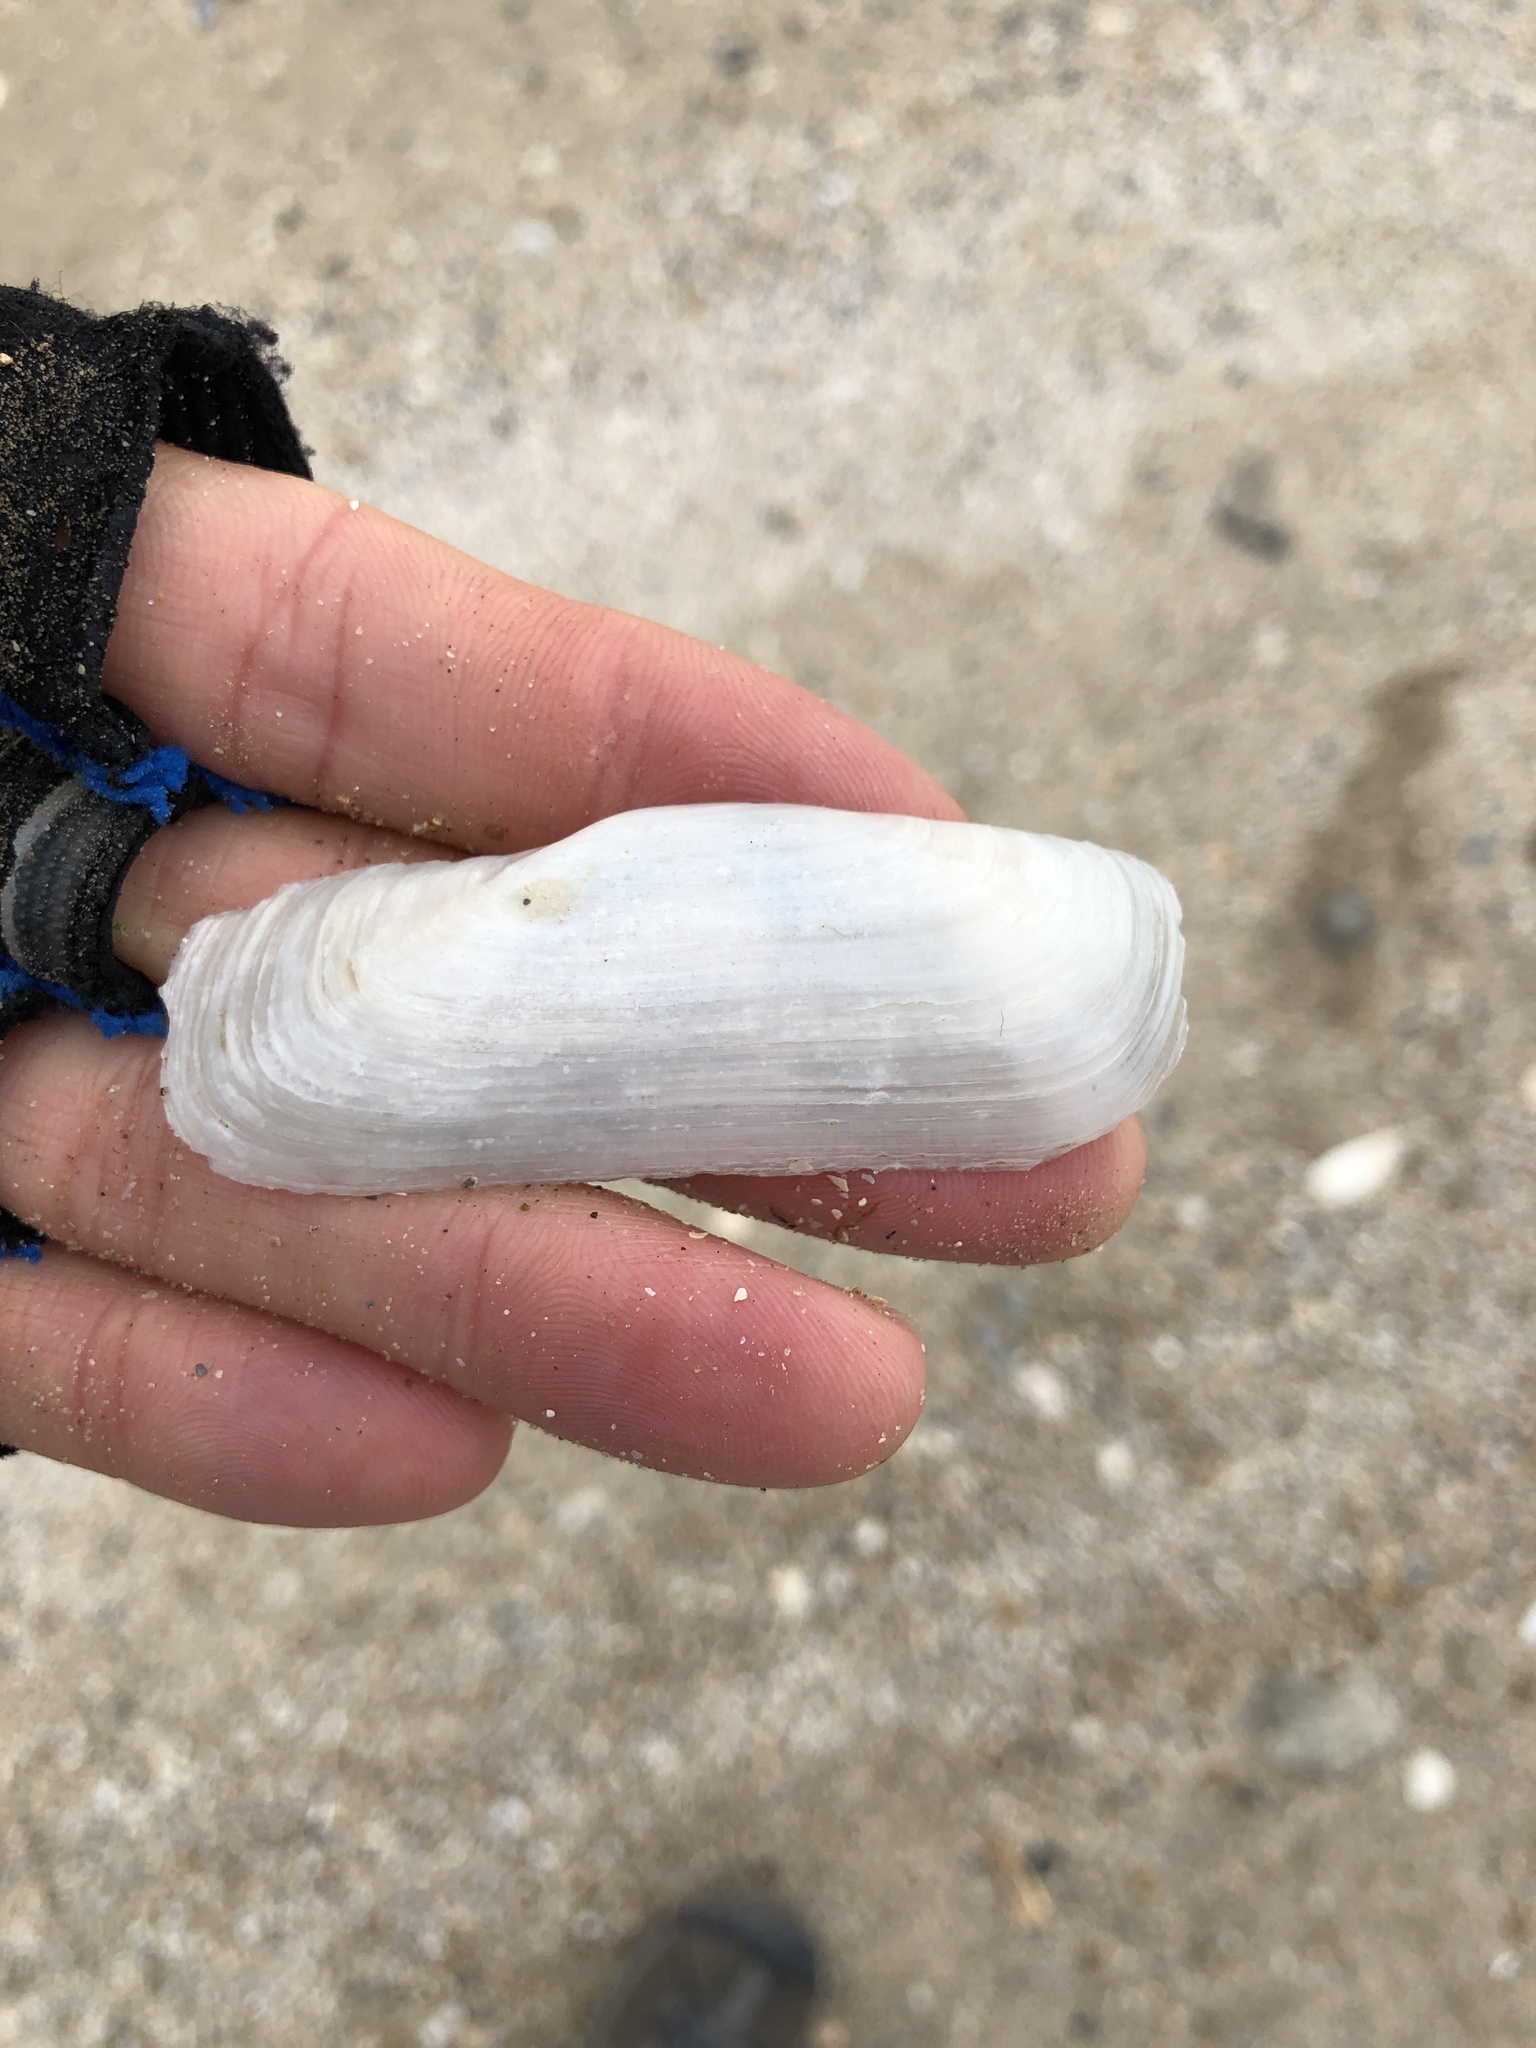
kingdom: Animalia
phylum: Mollusca
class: Bivalvia
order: Cardiida
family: Solecurtidae
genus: Tagelus
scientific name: Tagelus plebeius
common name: Stout tagelus
